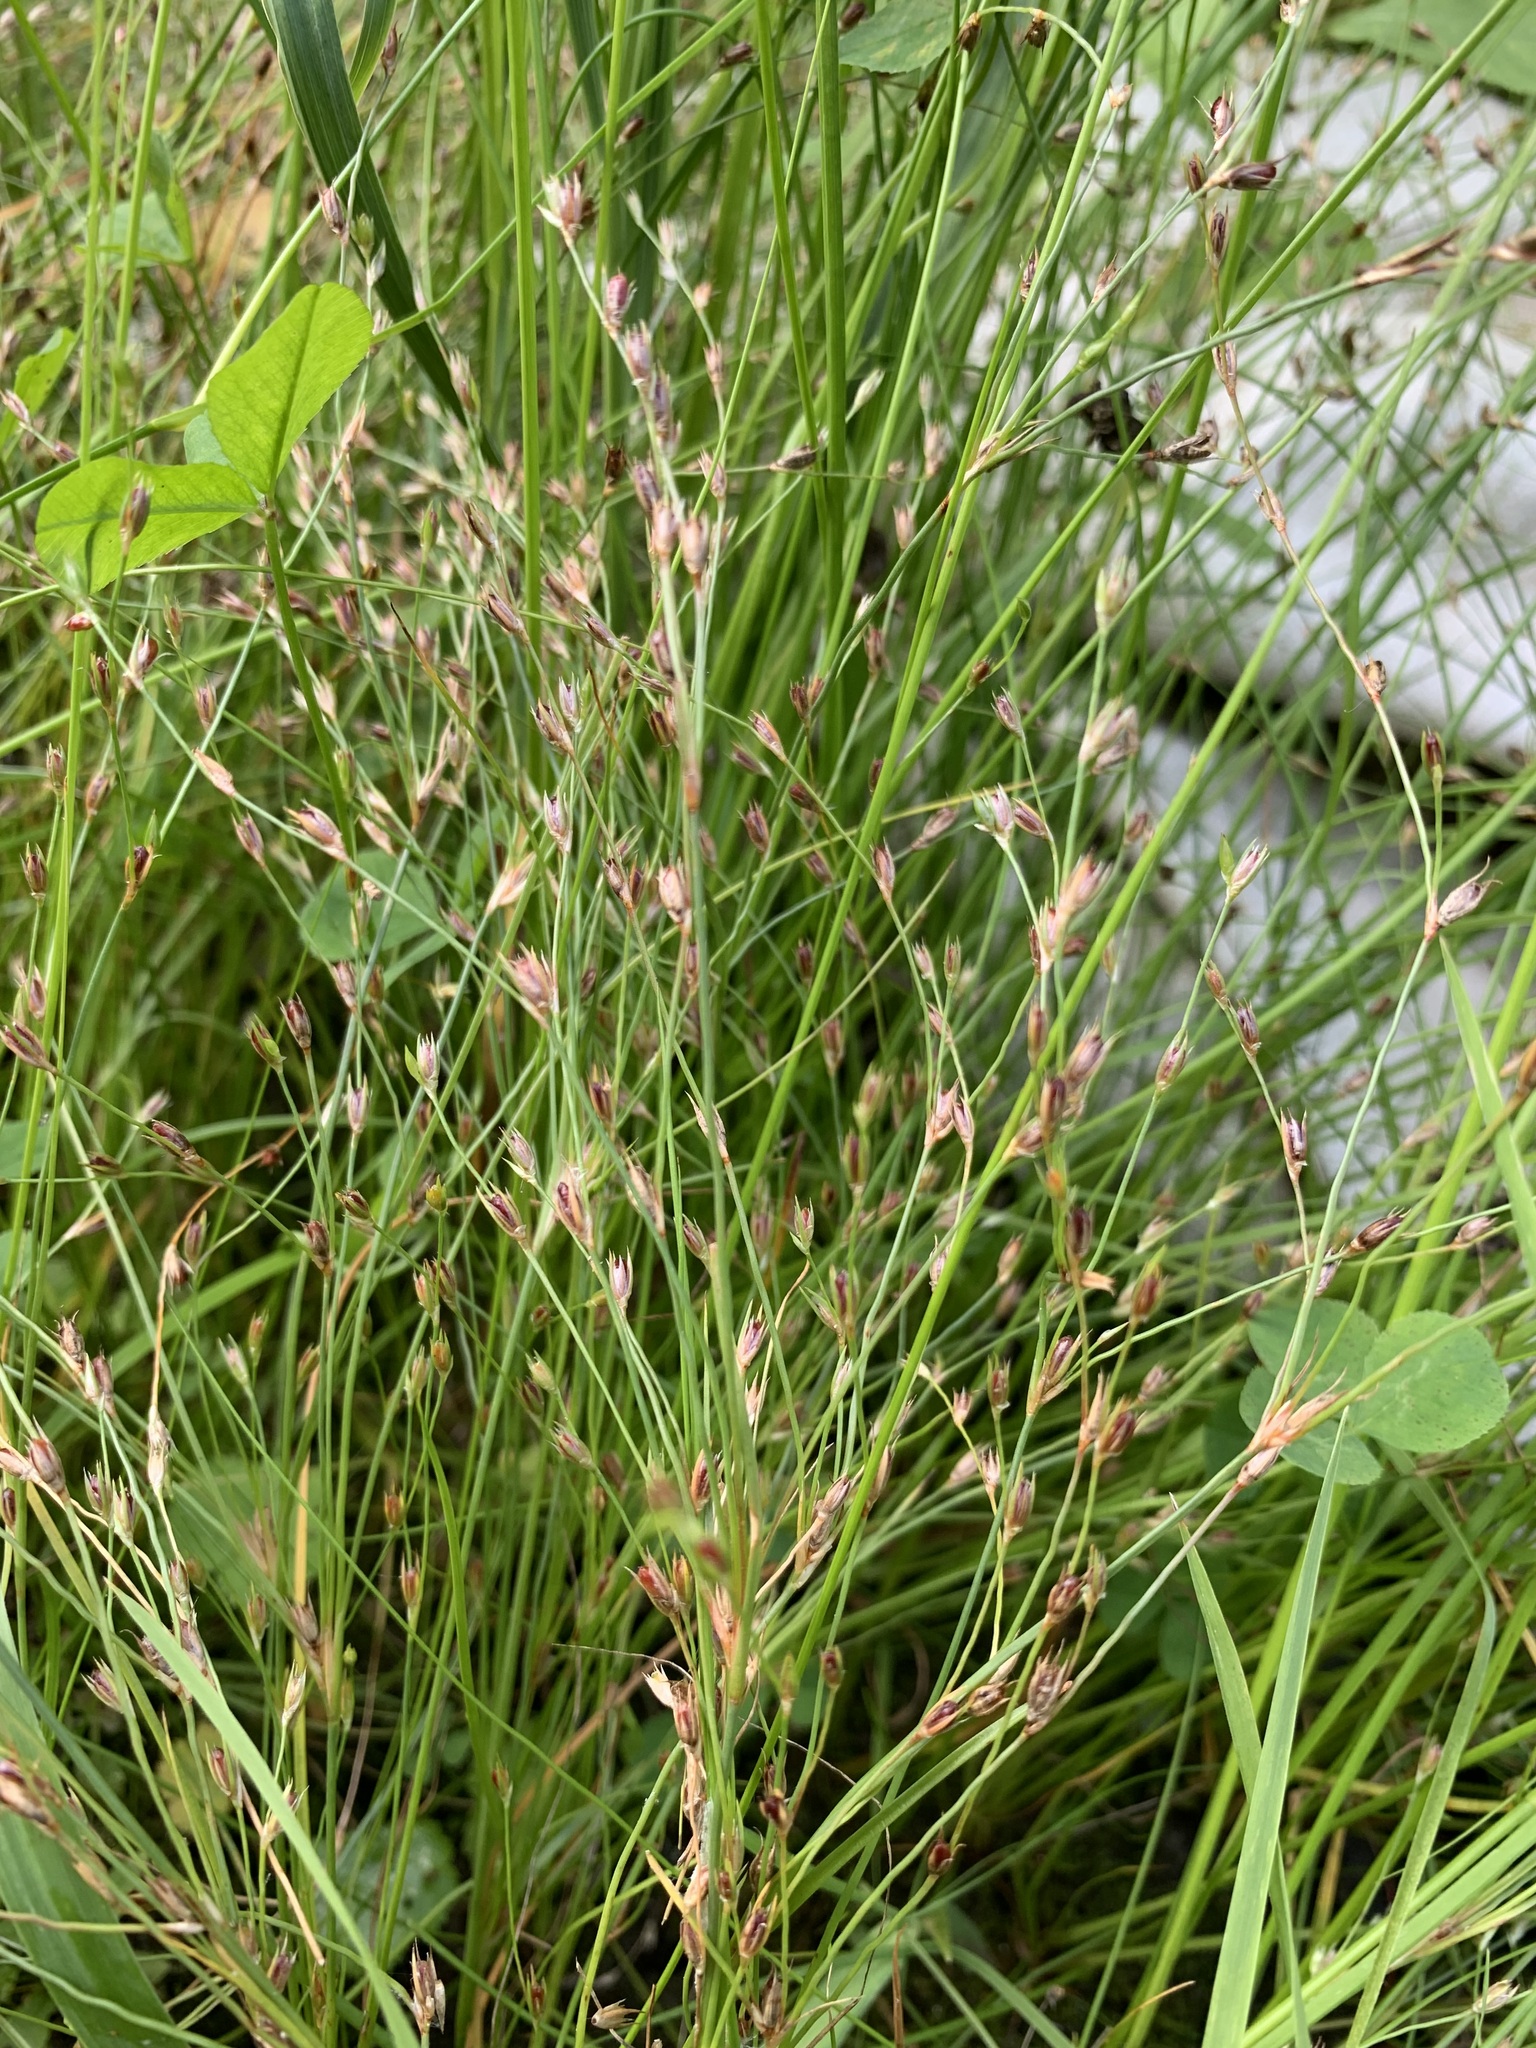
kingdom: Plantae
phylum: Tracheophyta
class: Liliopsida
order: Poales
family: Juncaceae
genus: Juncus
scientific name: Juncus bufonius
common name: Toad rush
